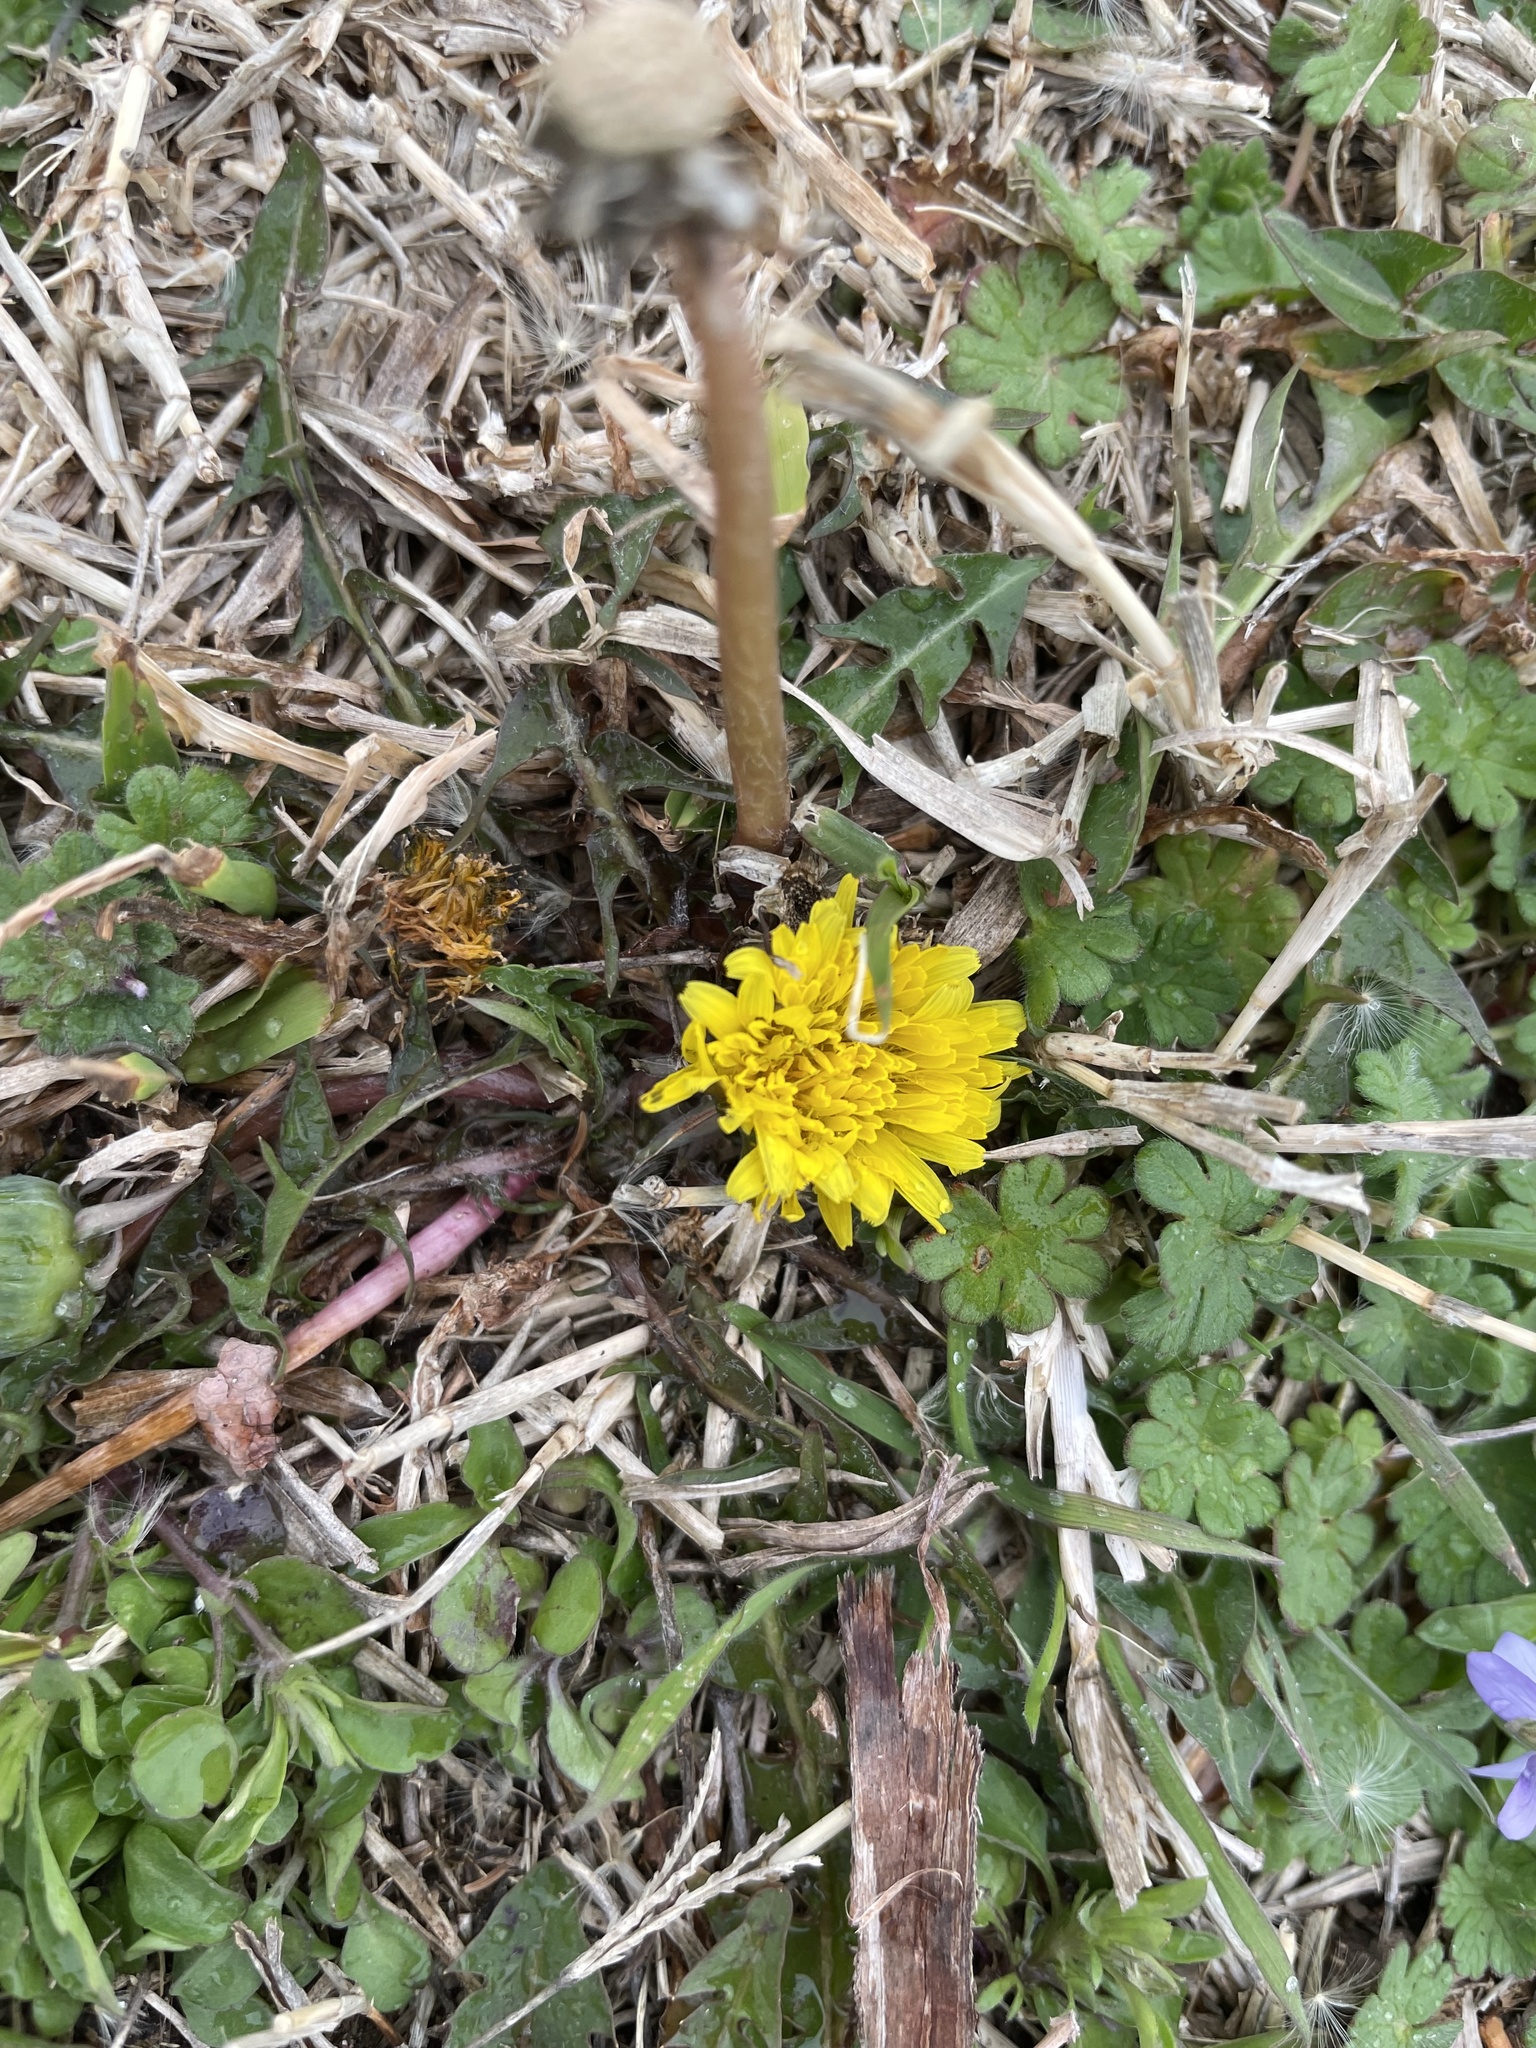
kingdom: Plantae
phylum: Tracheophyta
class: Magnoliopsida
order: Asterales
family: Asteraceae
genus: Taraxacum
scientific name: Taraxacum
